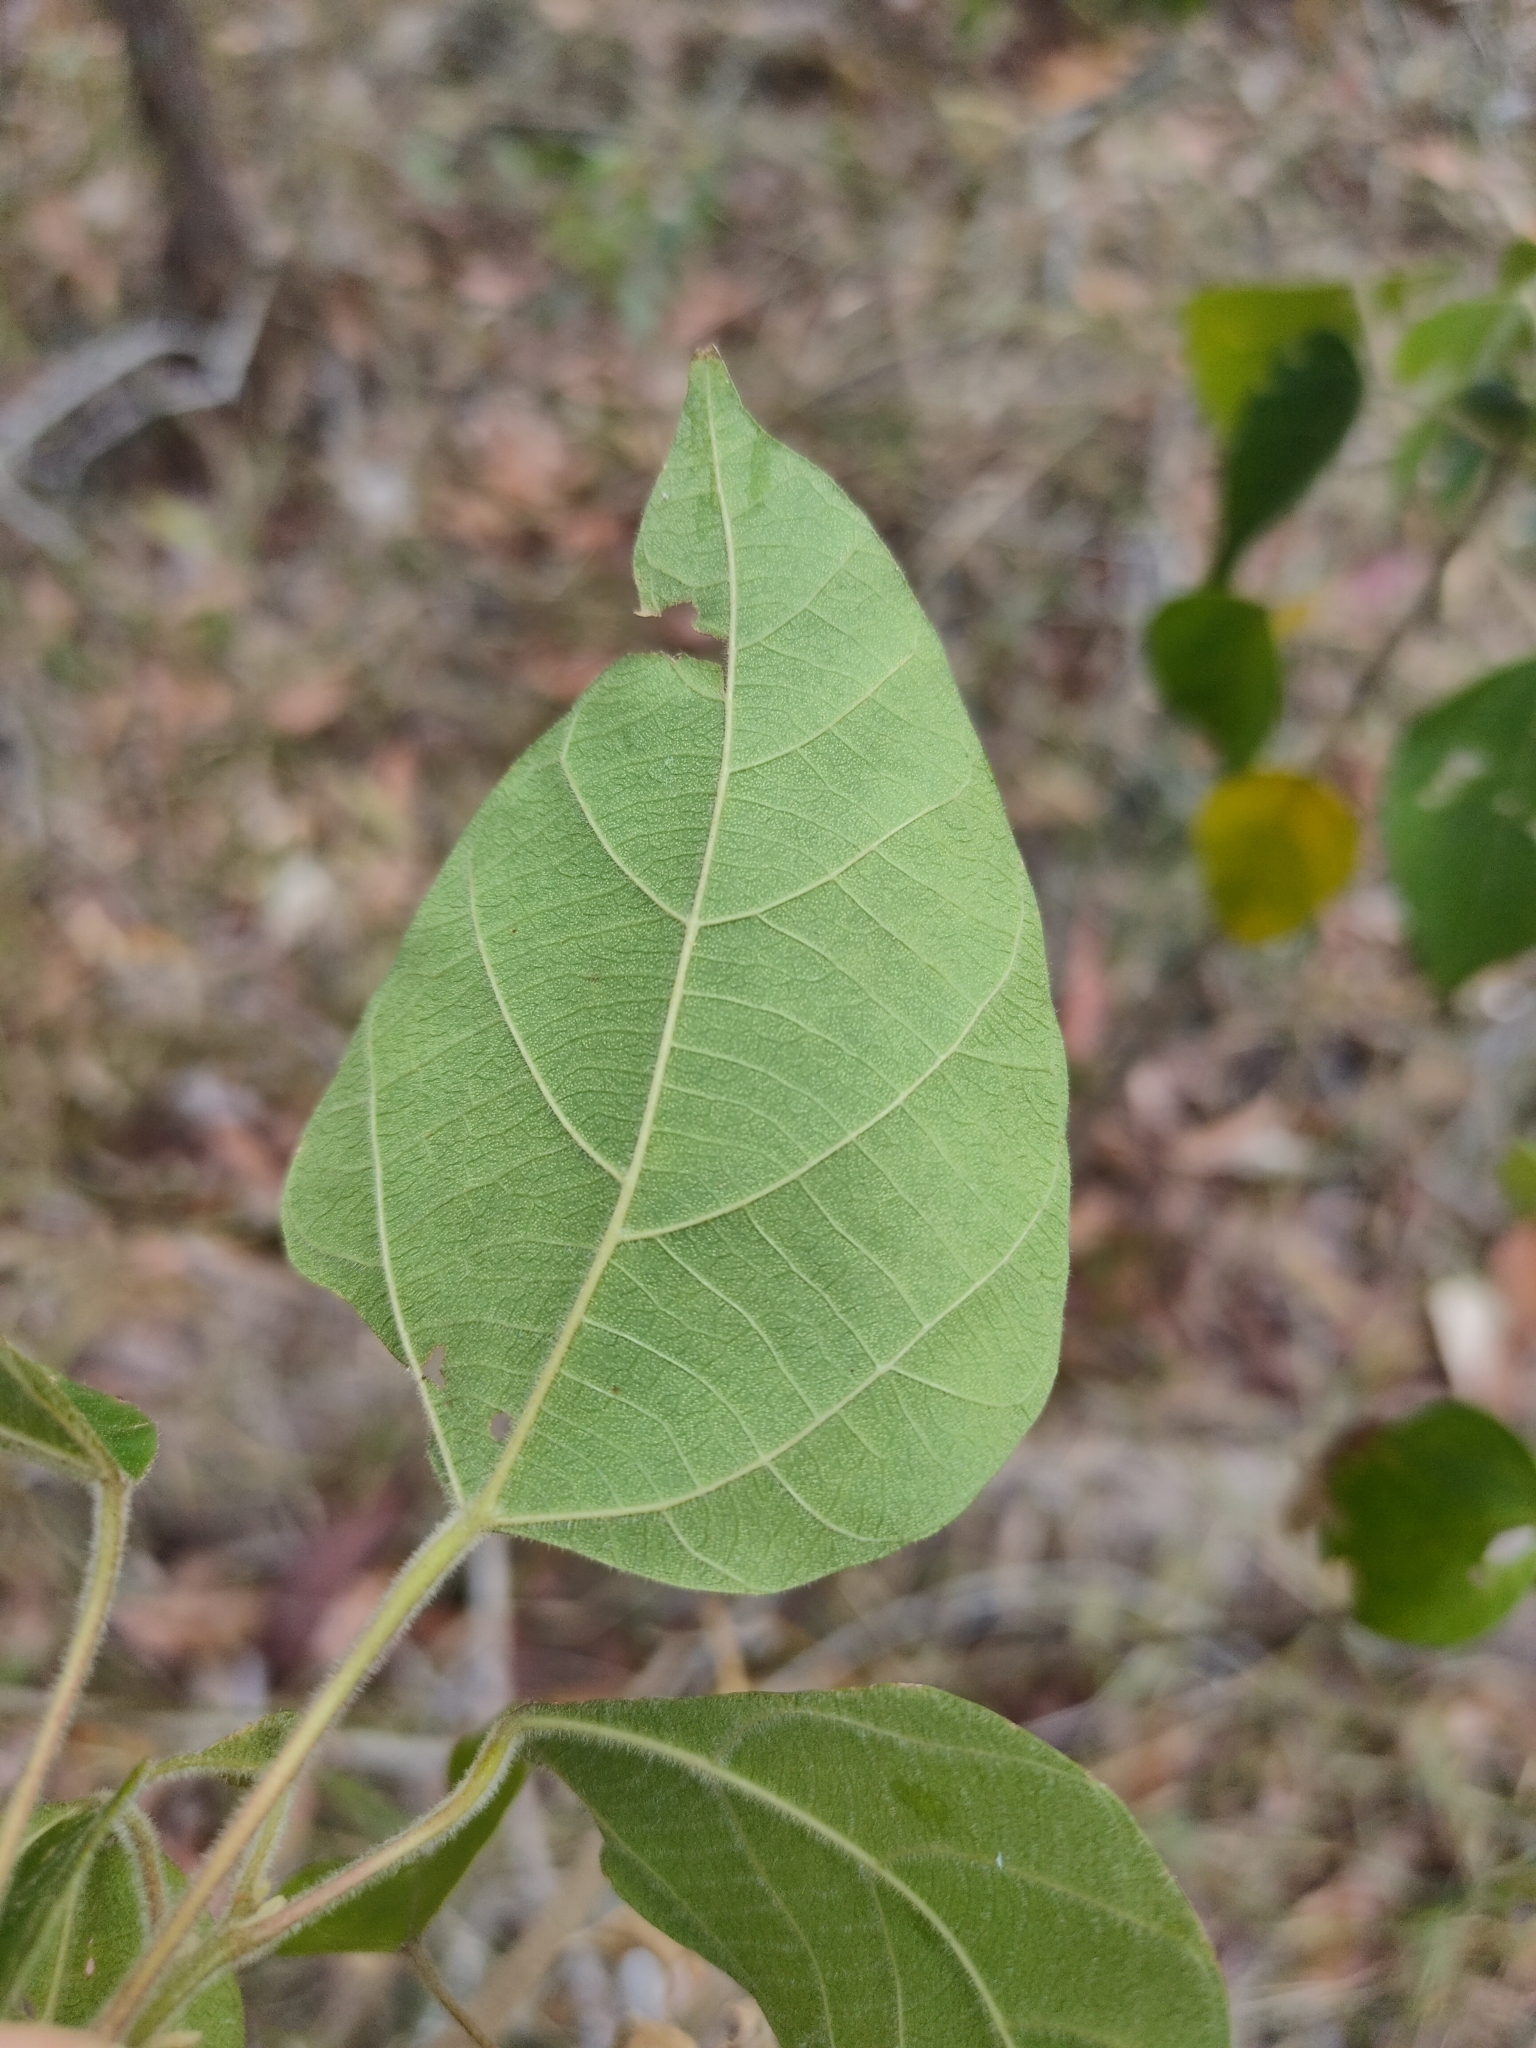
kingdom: Plantae
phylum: Tracheophyta
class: Magnoliopsida
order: Malpighiales
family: Euphorbiaceae
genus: Mallotus
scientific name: Mallotus discolor
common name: White kamala
